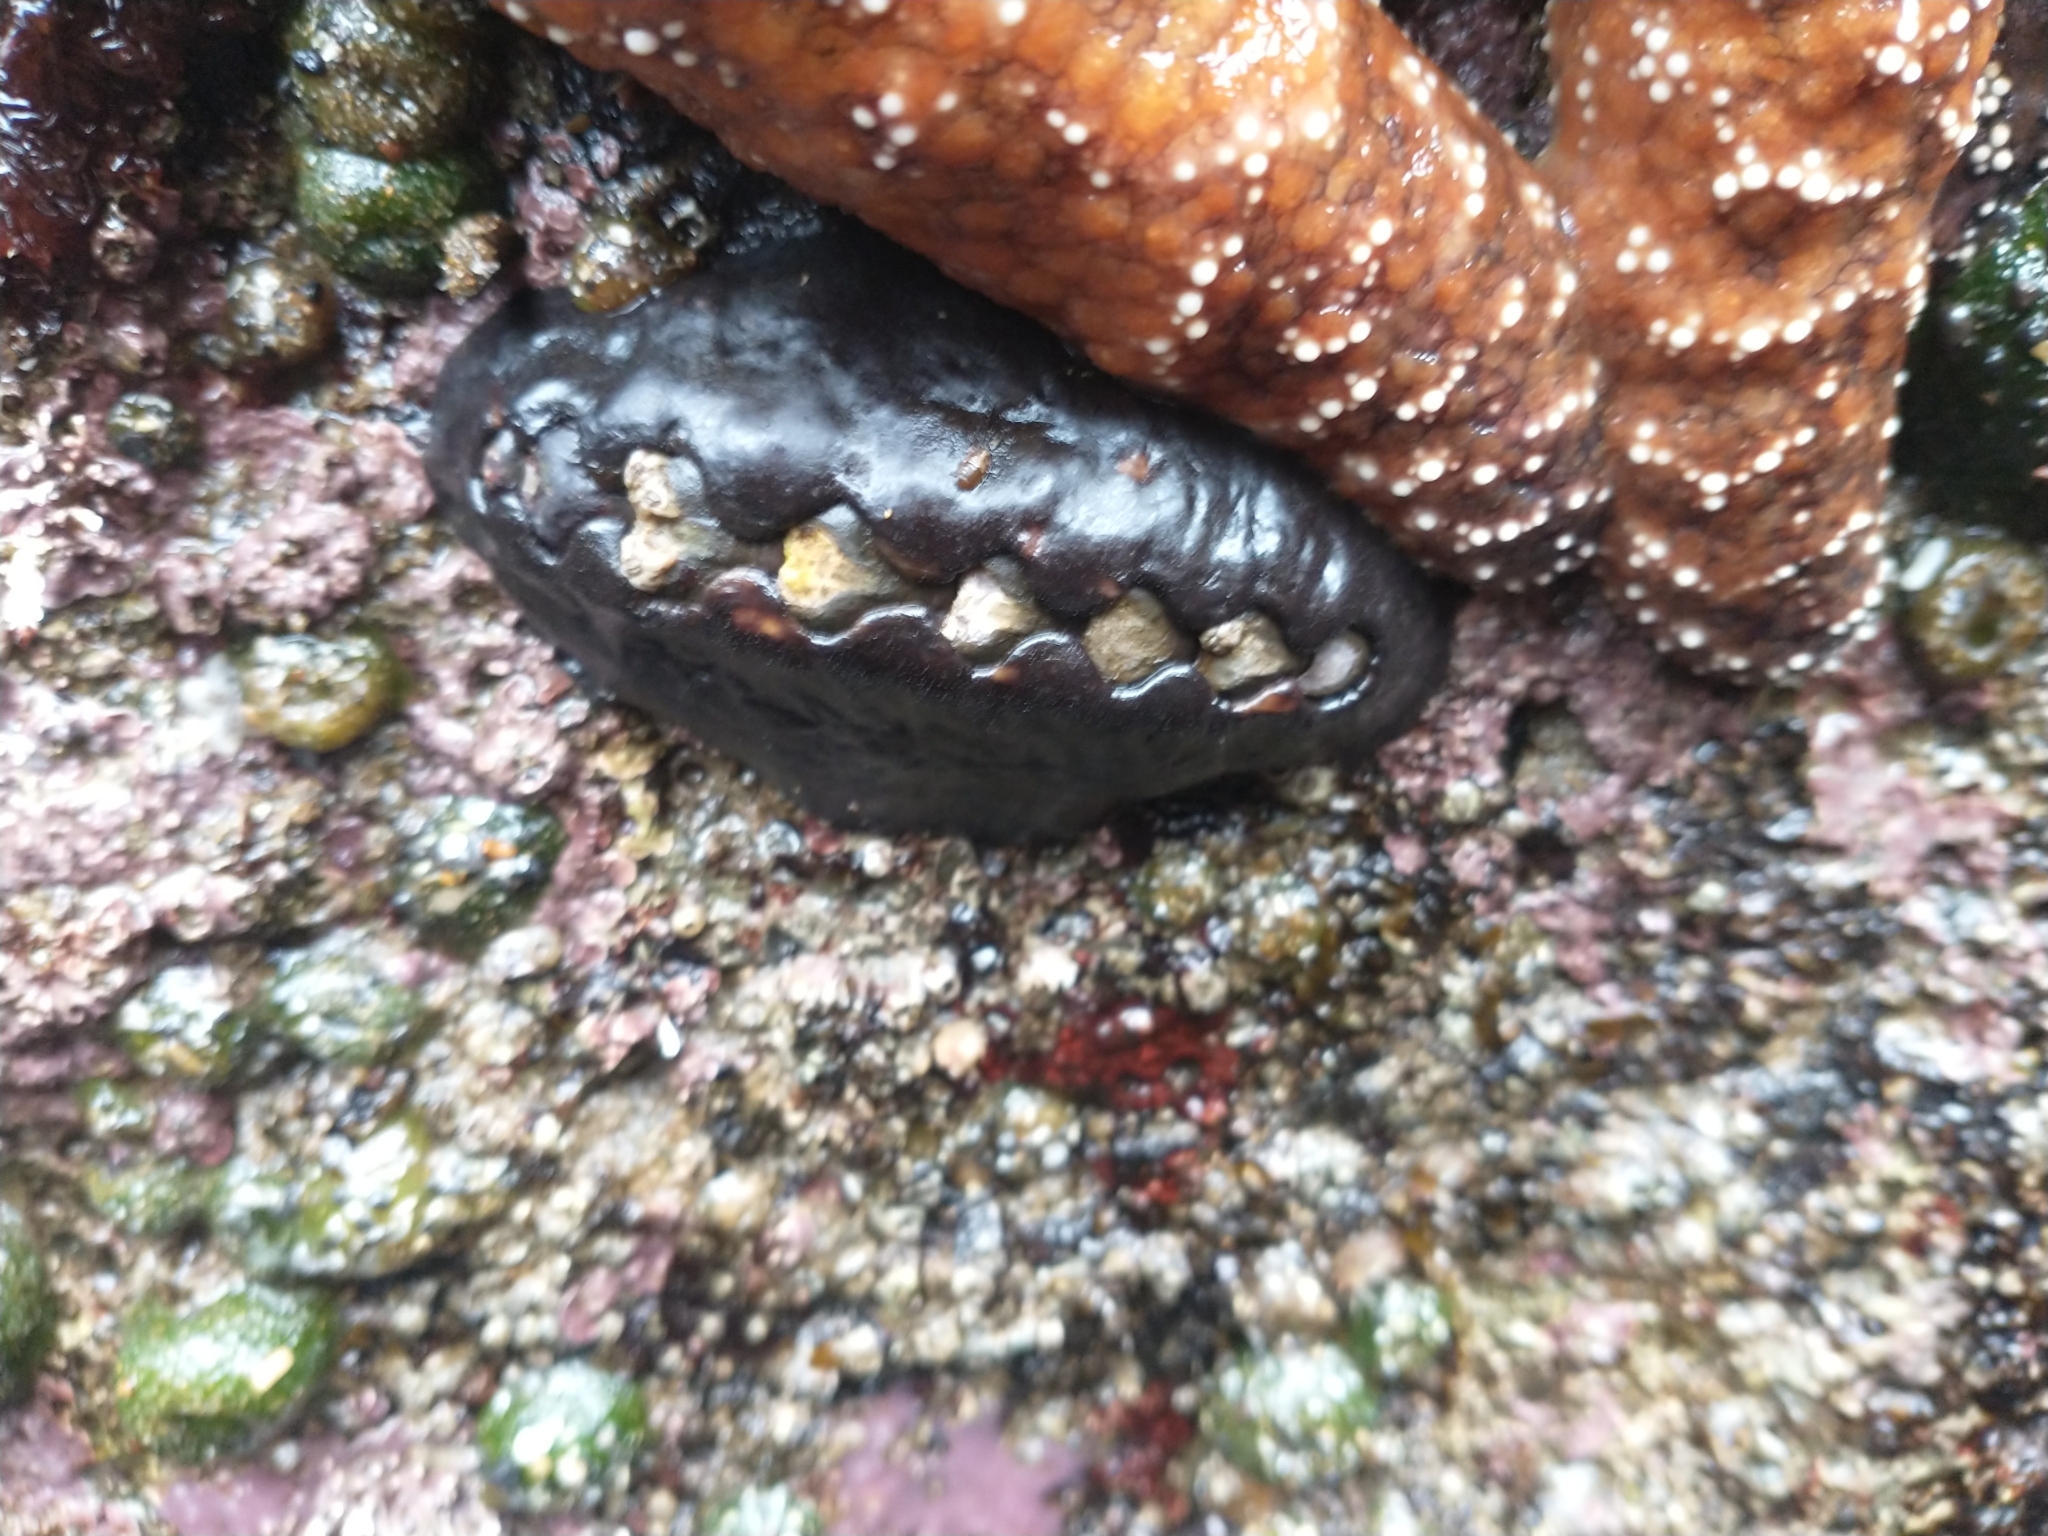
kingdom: Animalia
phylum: Mollusca
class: Polyplacophora
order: Chitonida
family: Mopaliidae
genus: Katharina
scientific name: Katharina tunicata
